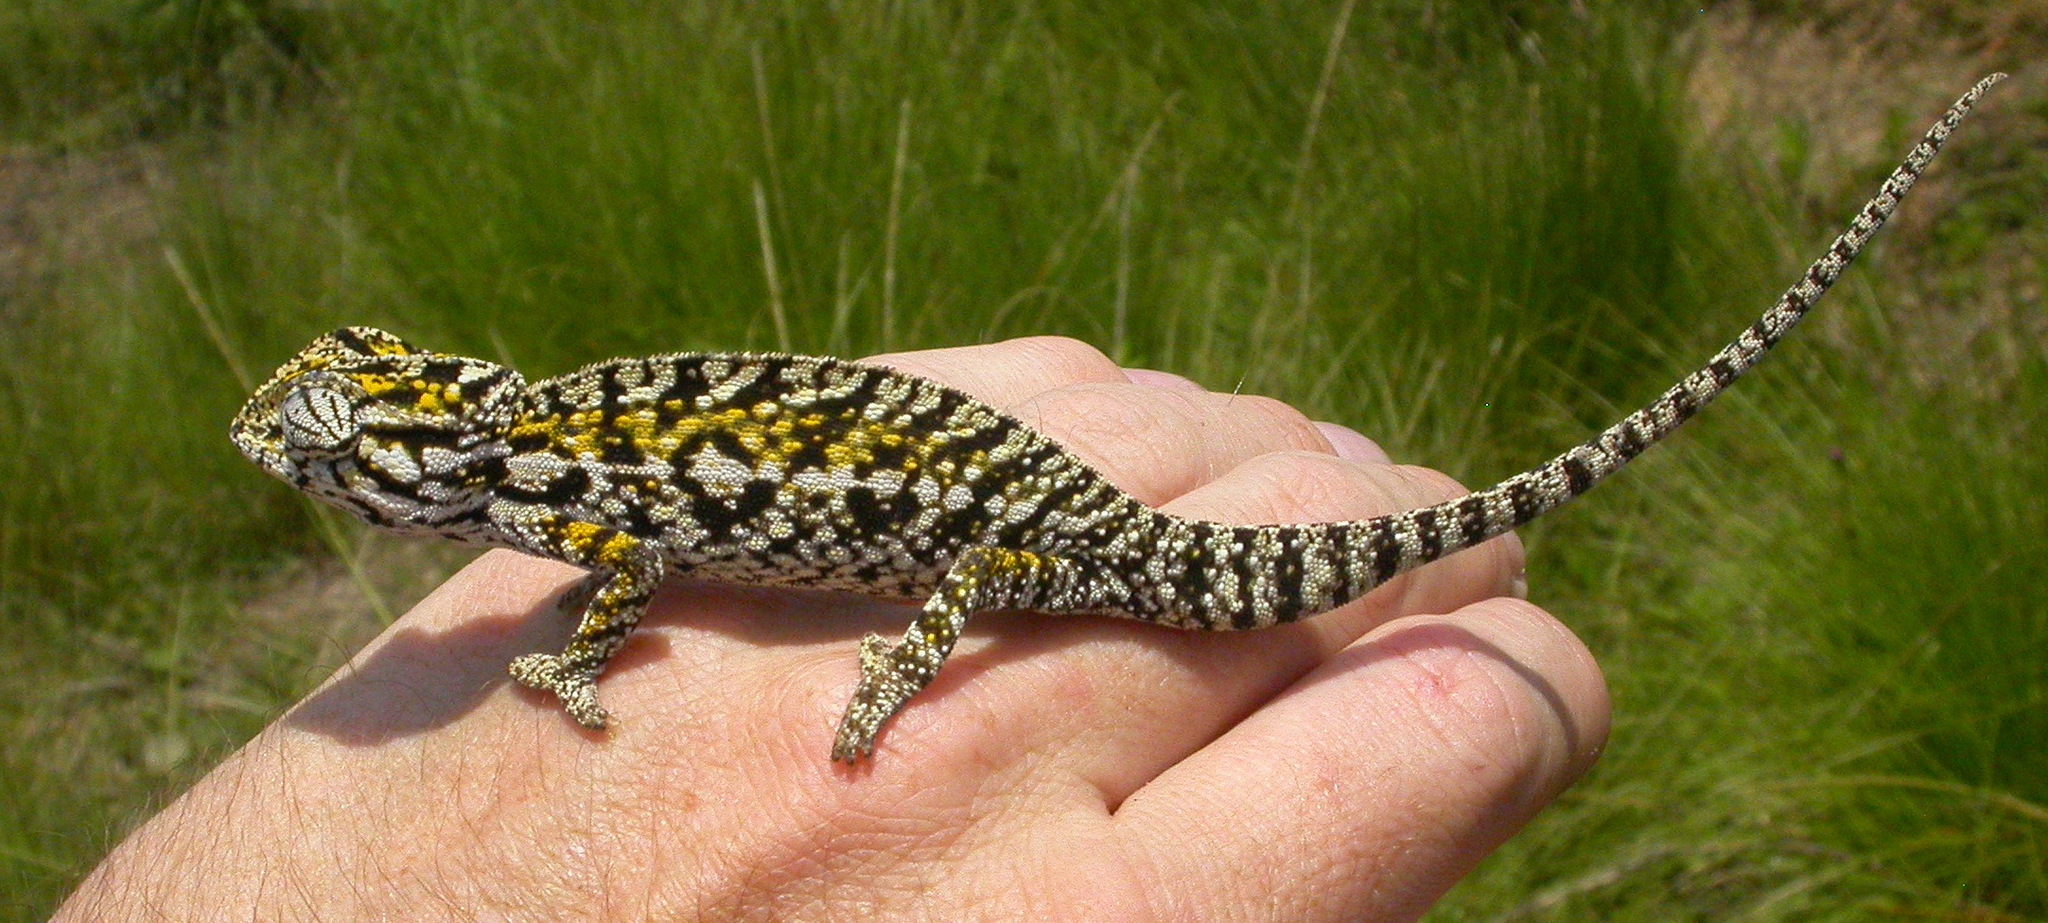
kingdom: Animalia
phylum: Chordata
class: Squamata
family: Chamaeleonidae
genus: Furcifer
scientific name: Furcifer lateralis
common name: Carpet chameleon
